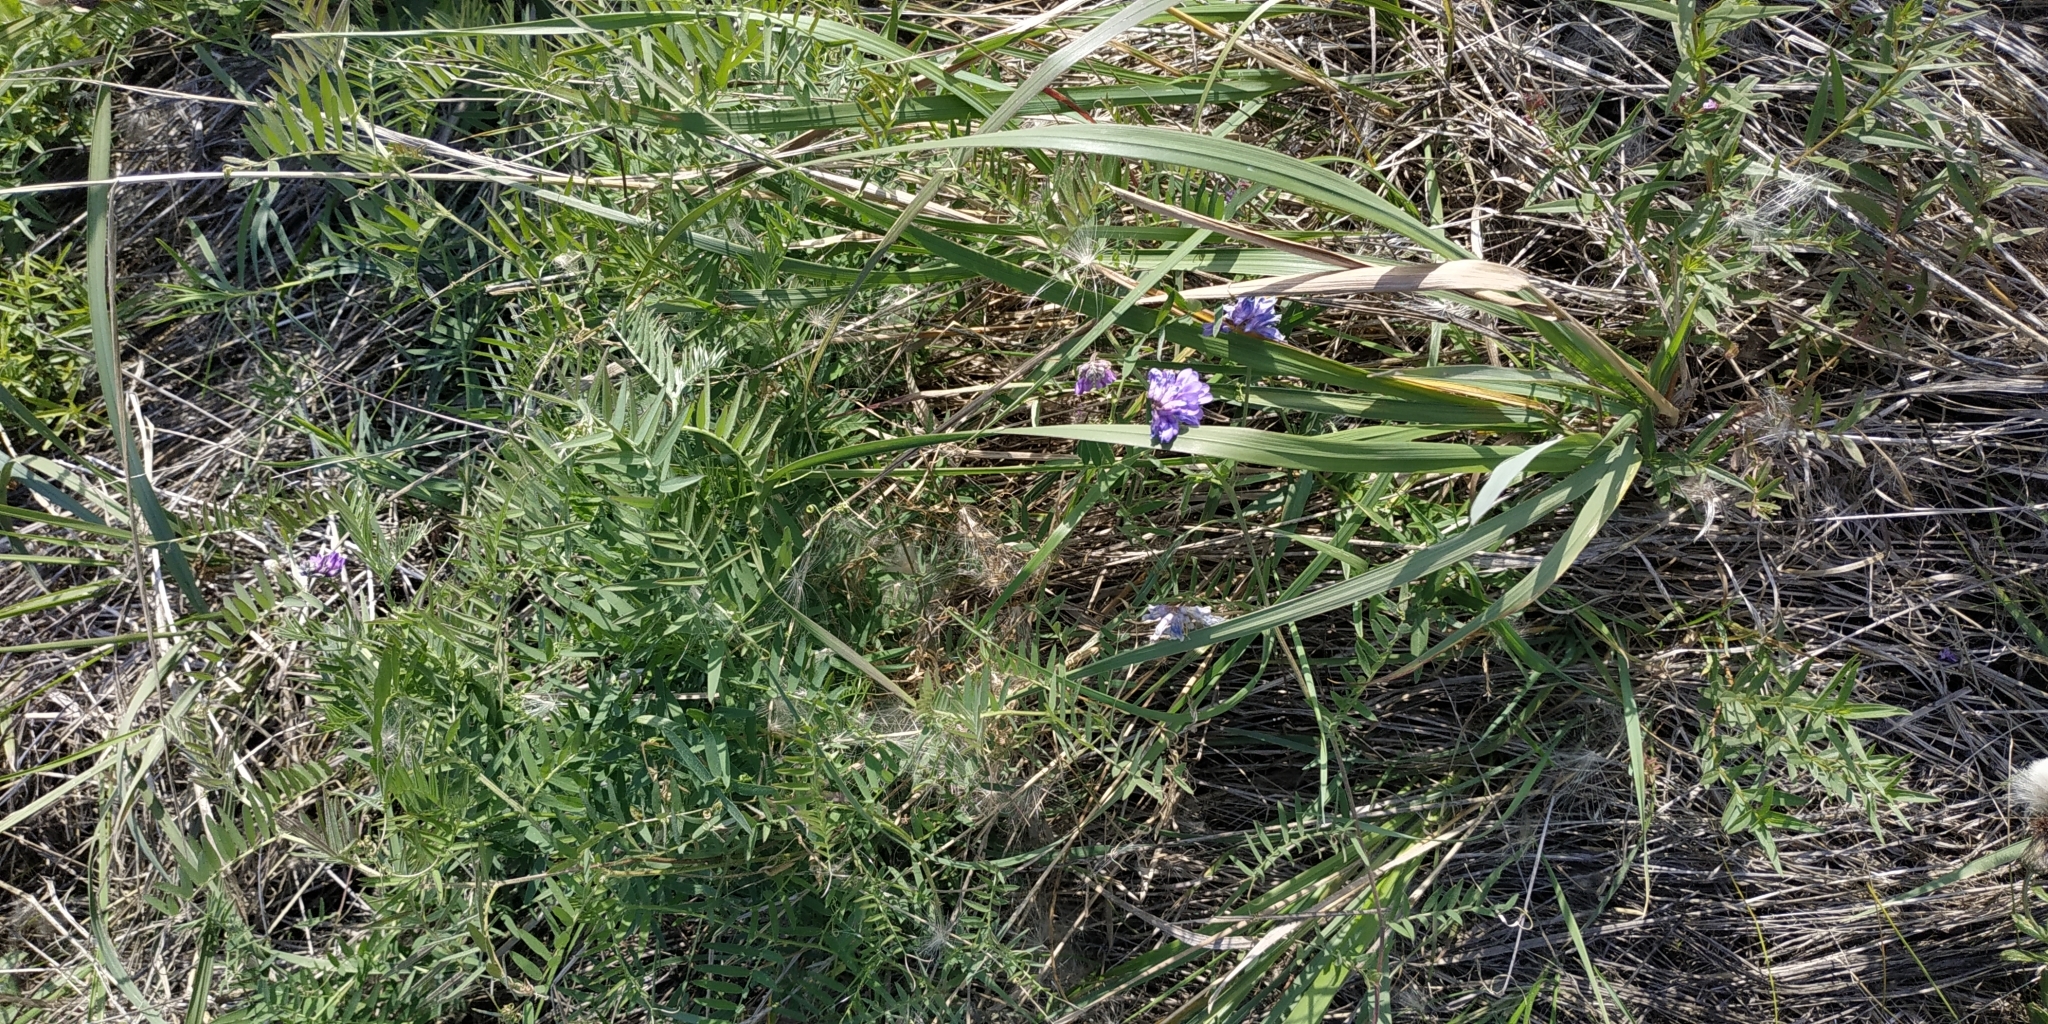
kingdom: Plantae
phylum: Tracheophyta
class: Magnoliopsida
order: Fabales
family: Fabaceae
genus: Vicia
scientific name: Vicia cracca
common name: Bird vetch
